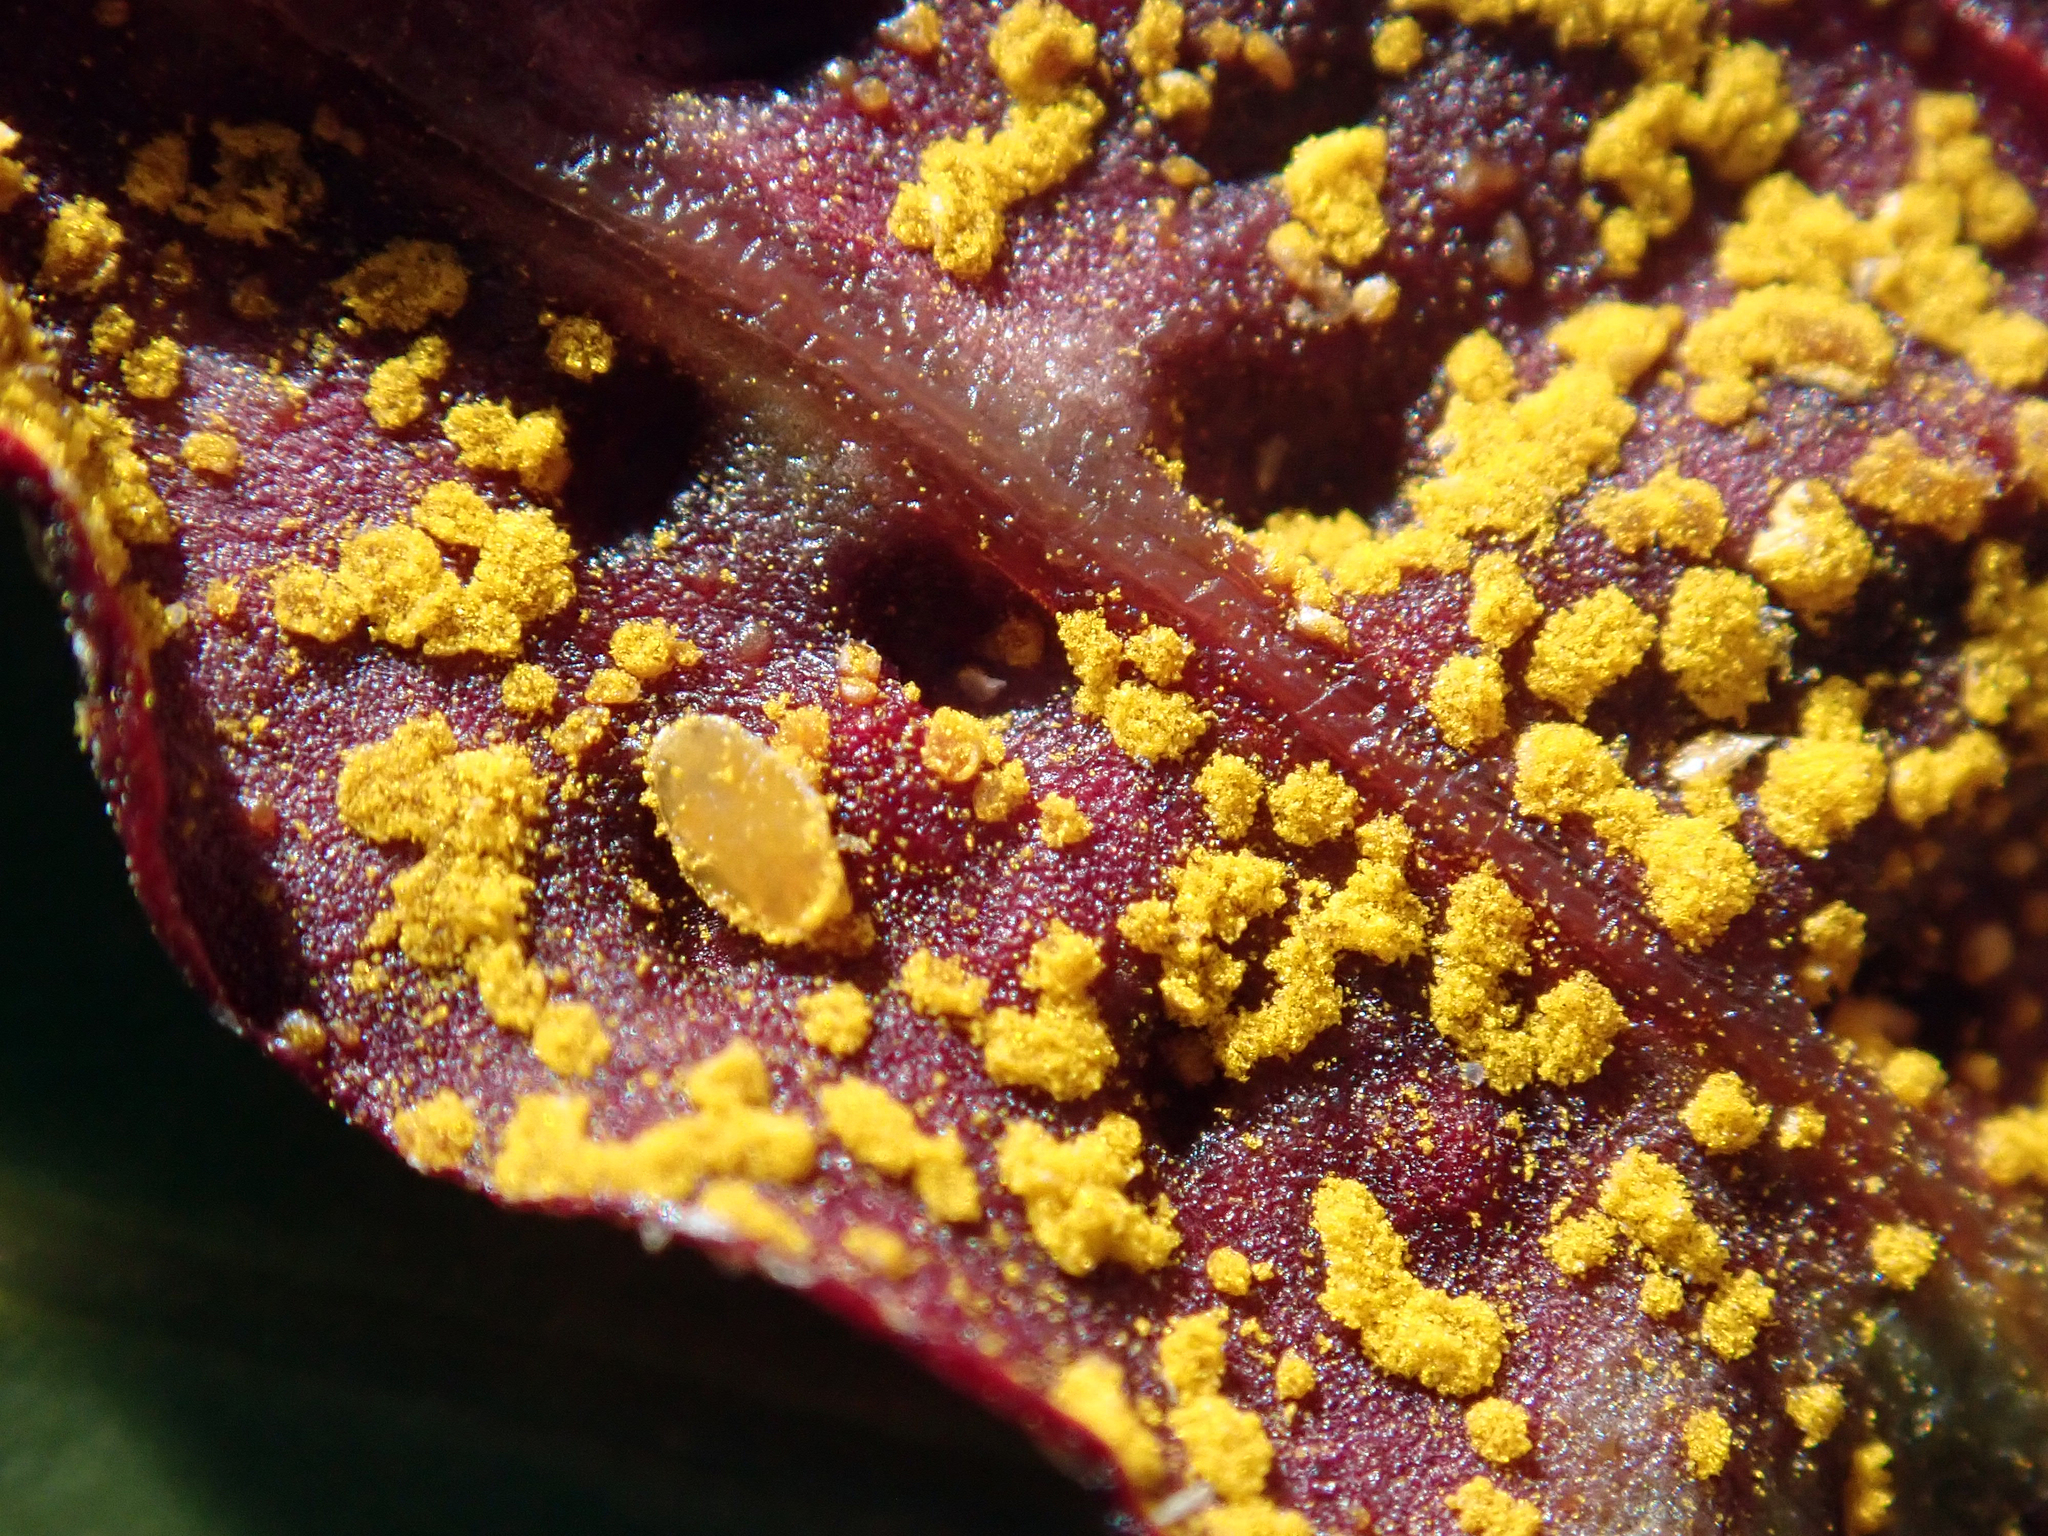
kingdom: Animalia
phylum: Arthropoda
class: Insecta
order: Hemiptera
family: Triozidae
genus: Trioza
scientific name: Trioza adventicia
